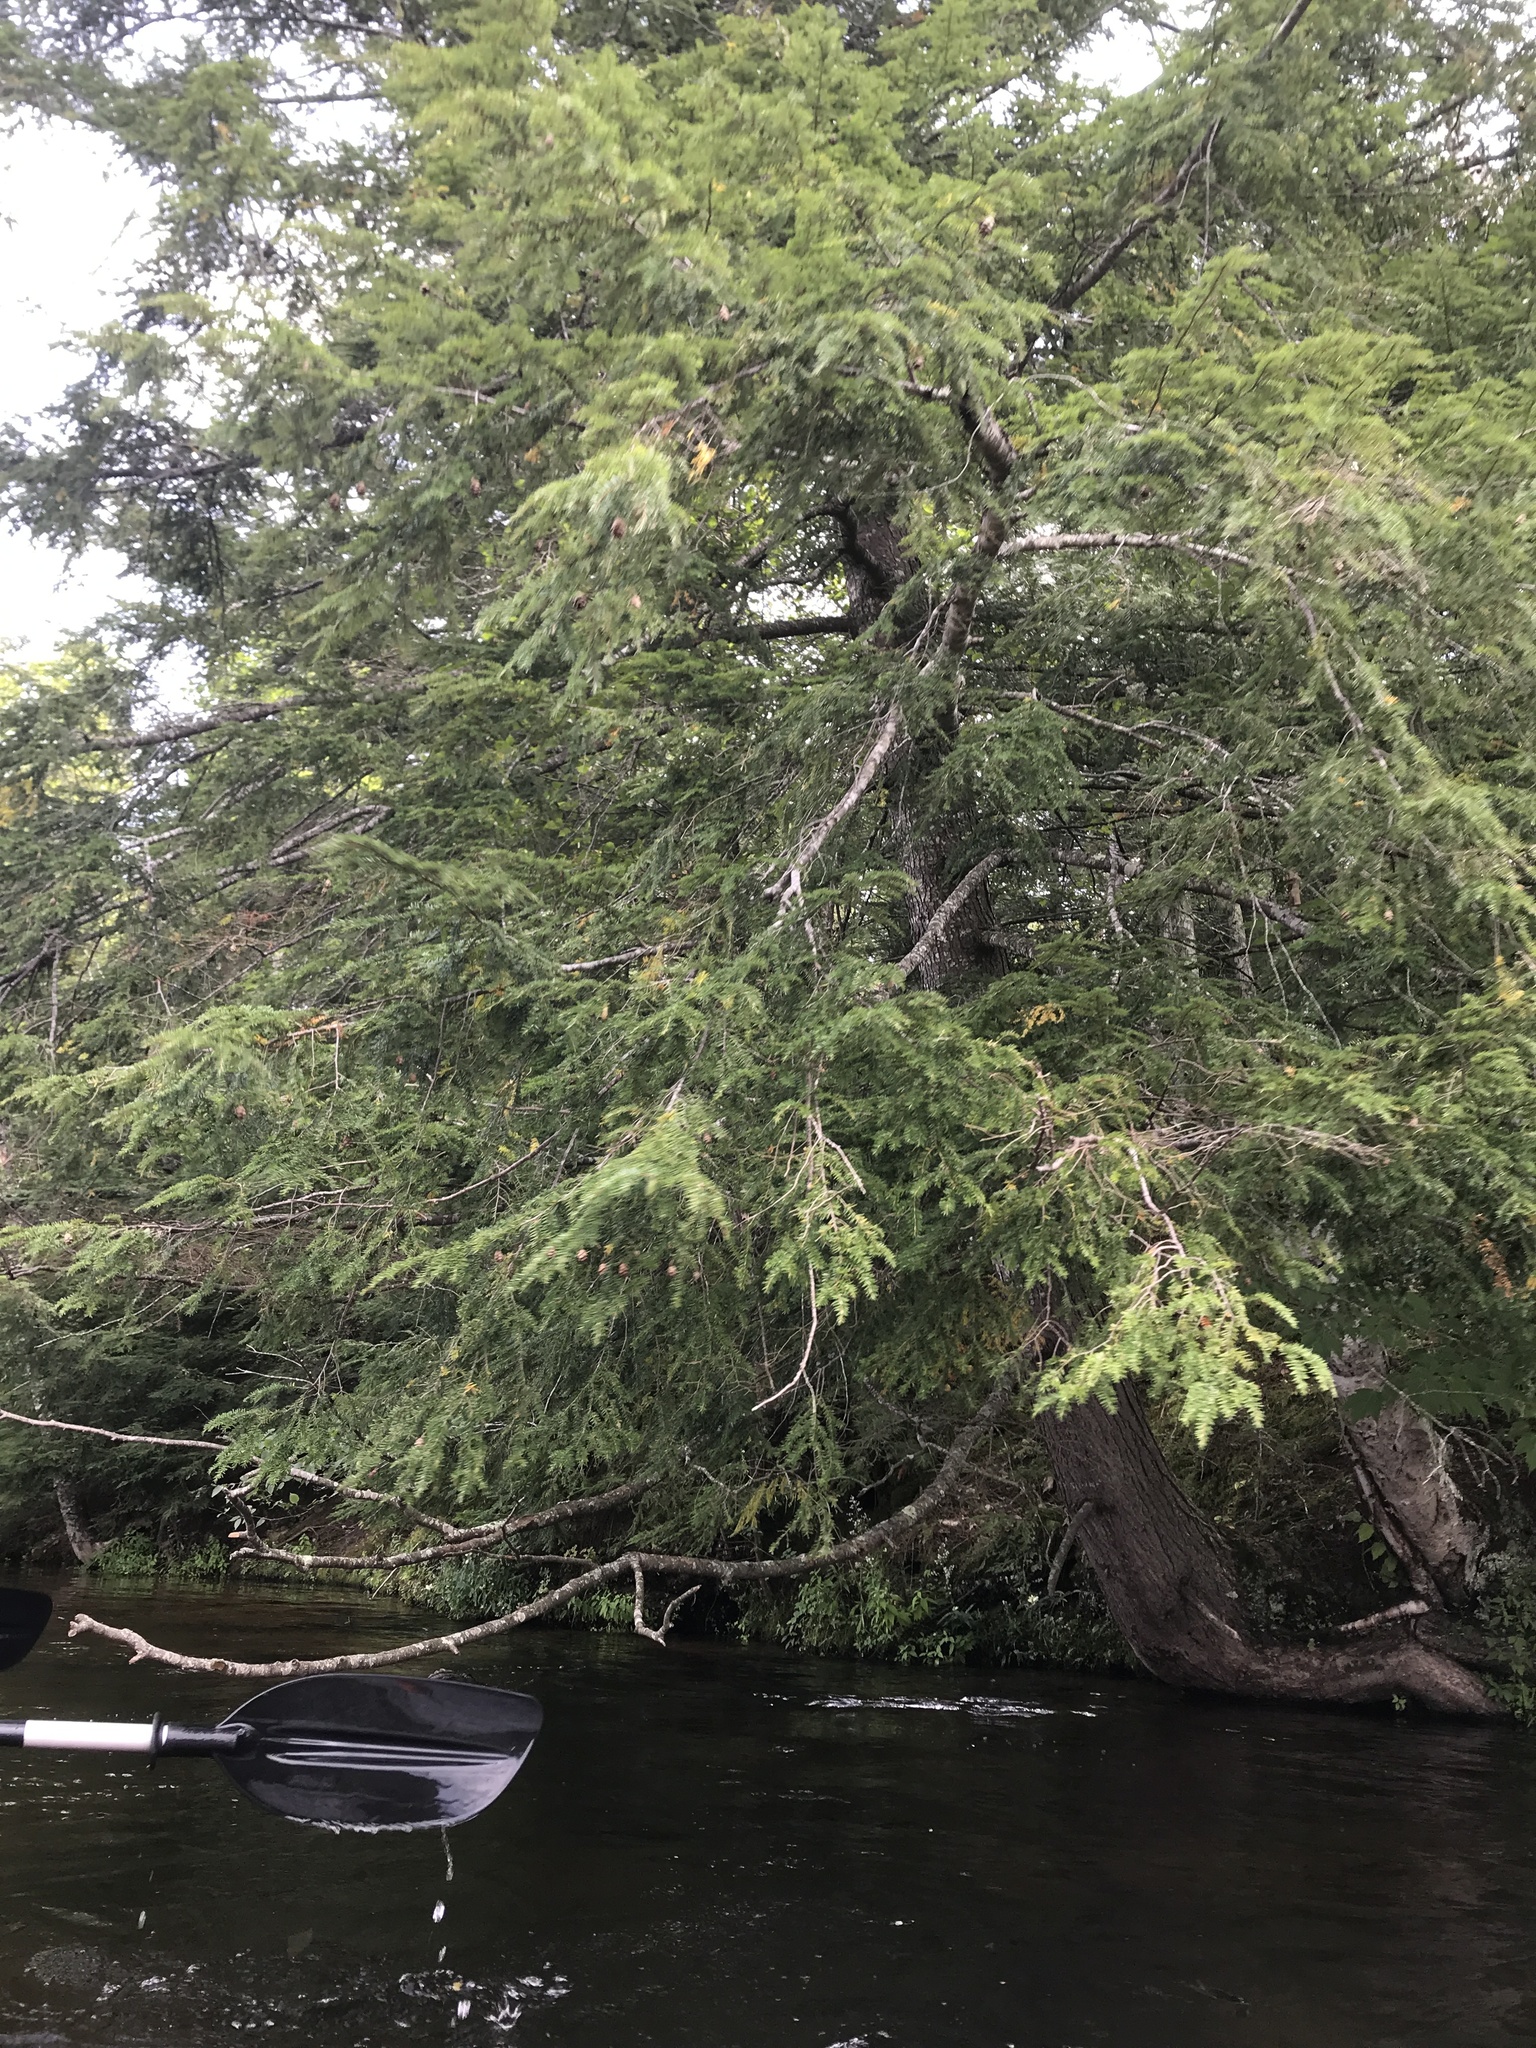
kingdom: Plantae
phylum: Tracheophyta
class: Pinopsida
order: Pinales
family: Pinaceae
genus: Tsuga
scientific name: Tsuga canadensis
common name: Eastern hemlock
